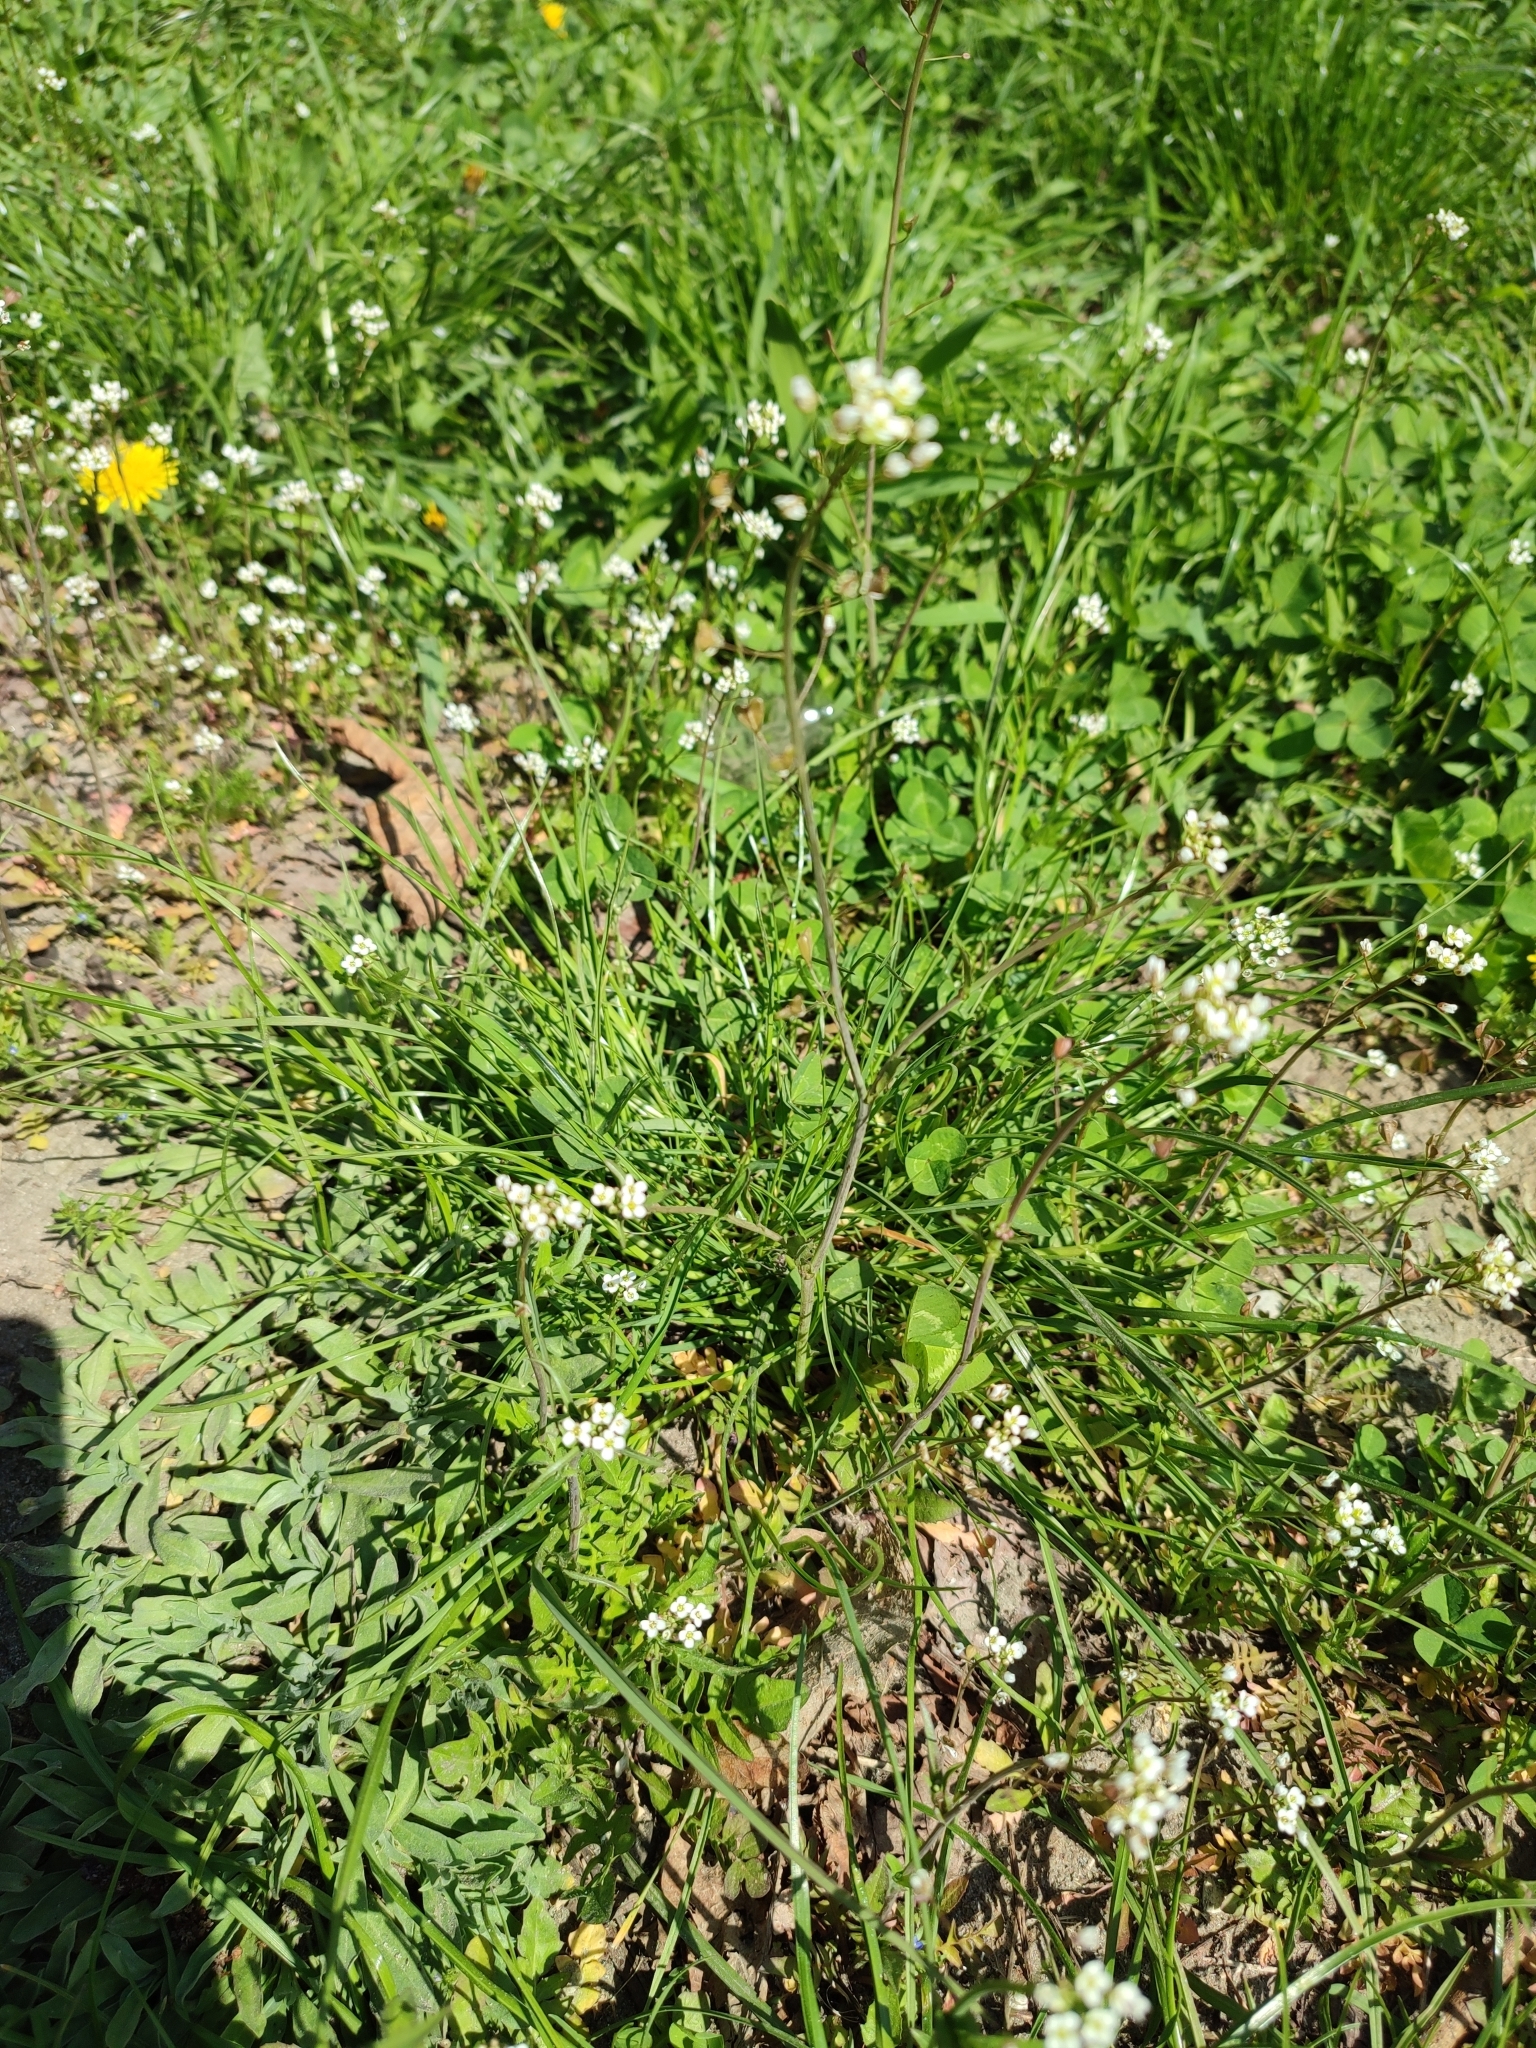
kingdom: Plantae
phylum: Tracheophyta
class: Magnoliopsida
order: Brassicales
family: Brassicaceae
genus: Capsella
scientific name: Capsella bursa-pastoris
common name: Shepherd's purse
